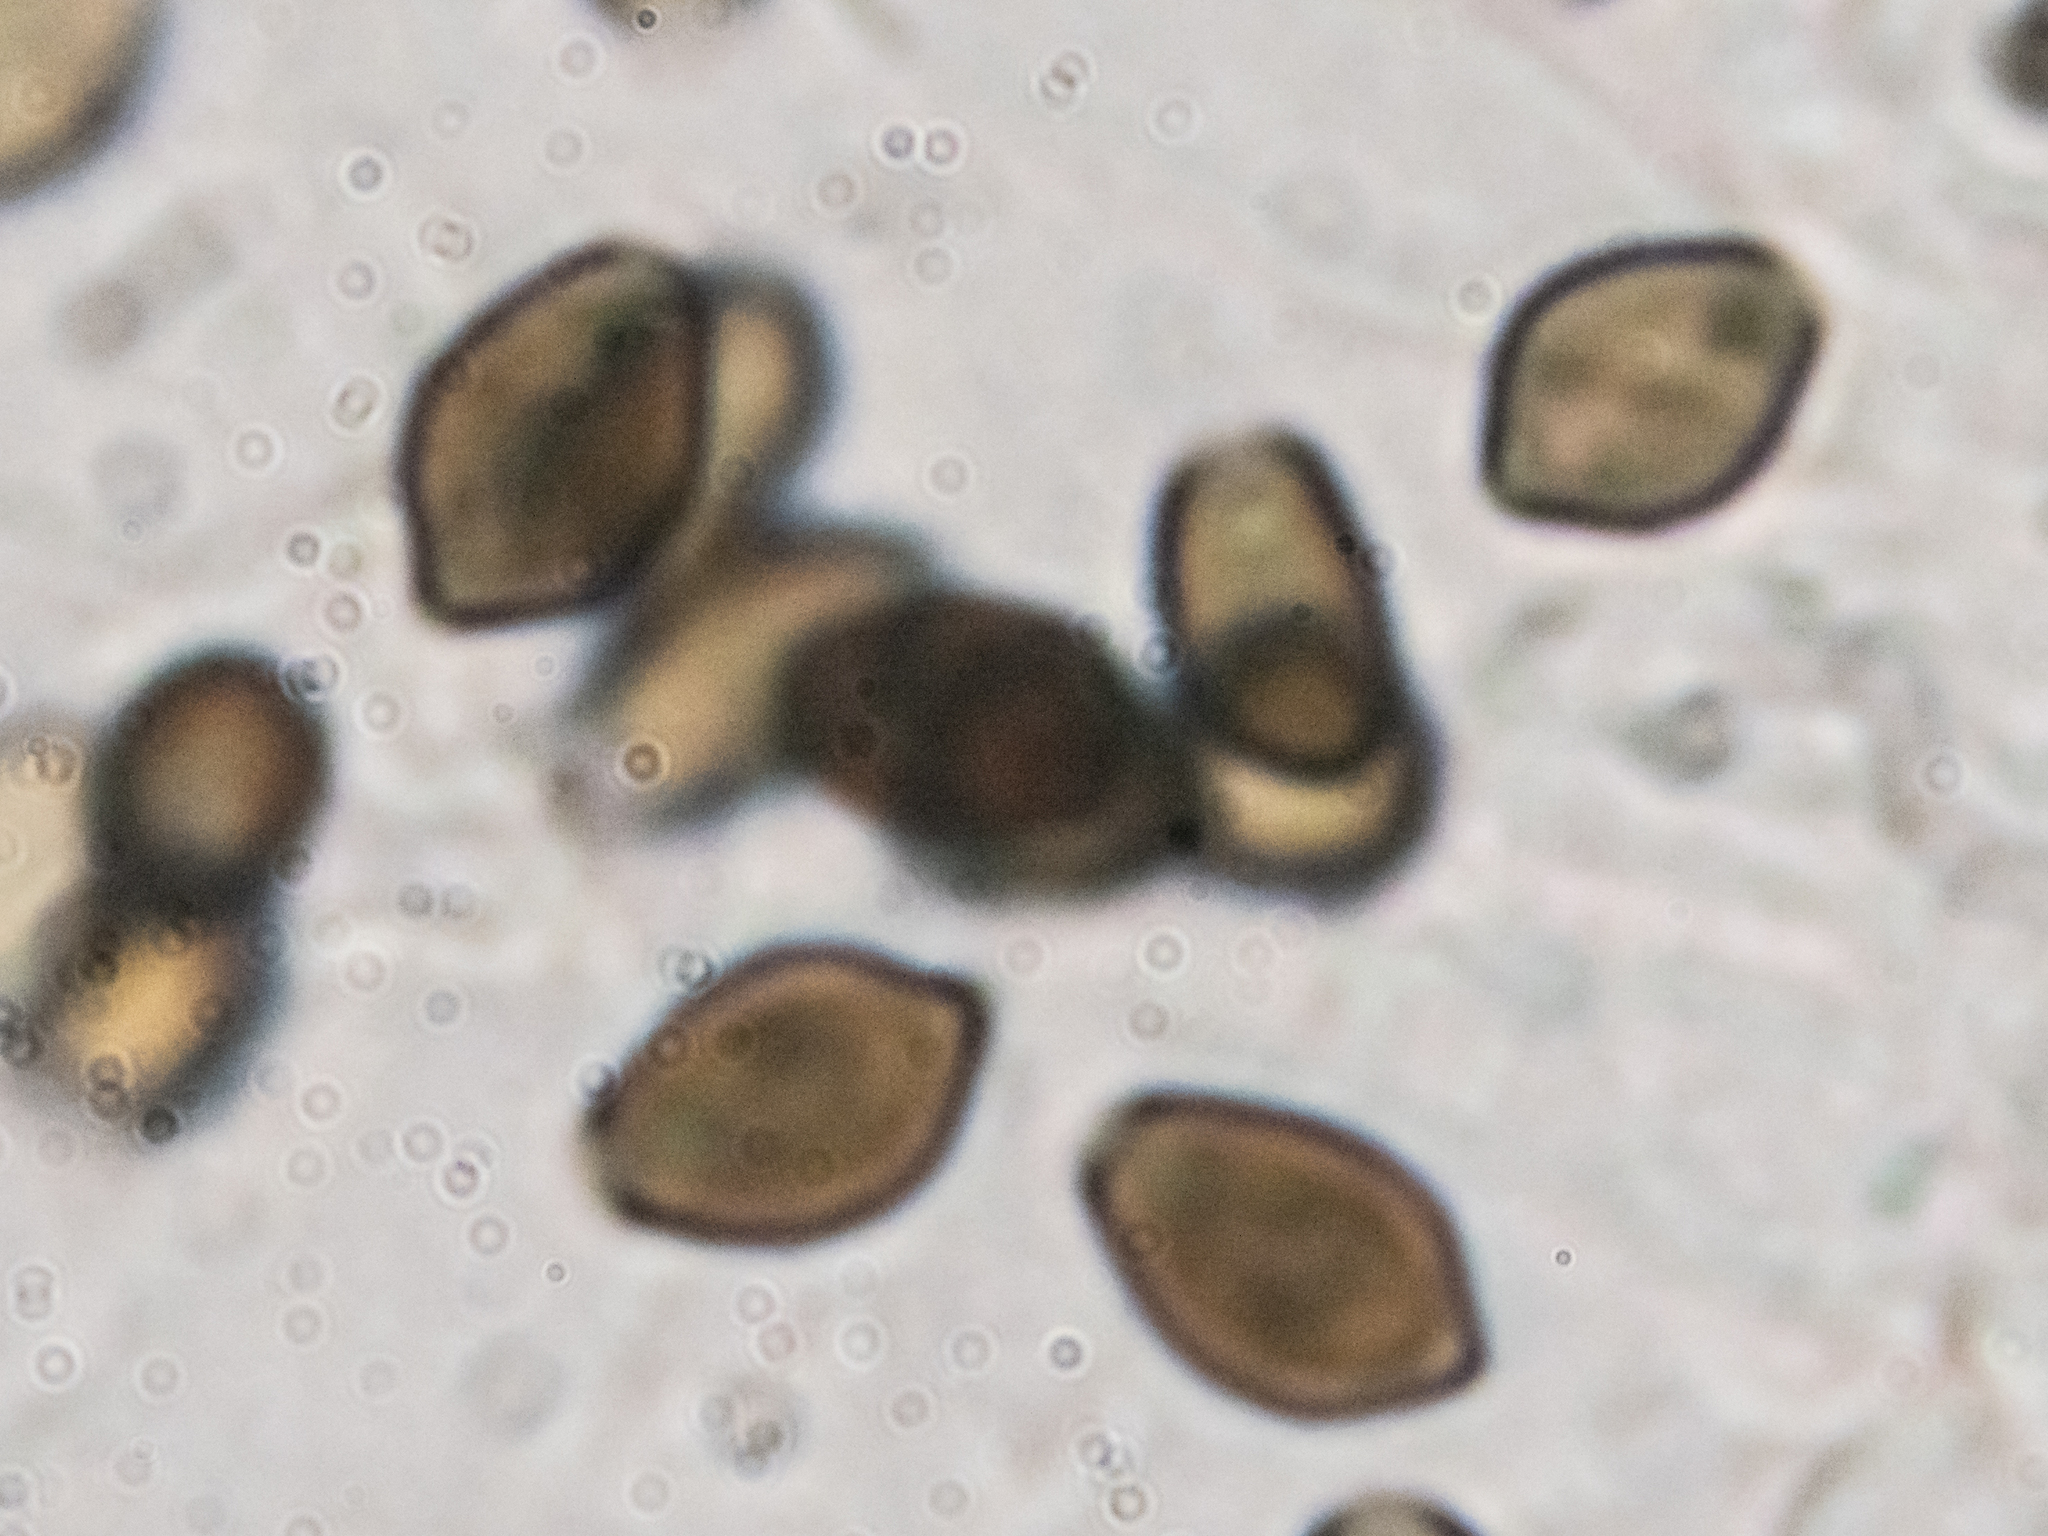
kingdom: Fungi
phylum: Basidiomycota
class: Agaricomycetes
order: Agaricales
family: Psathyrellaceae
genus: Coprinellus
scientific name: Coprinellus micaceus
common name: Glistening ink-cap
